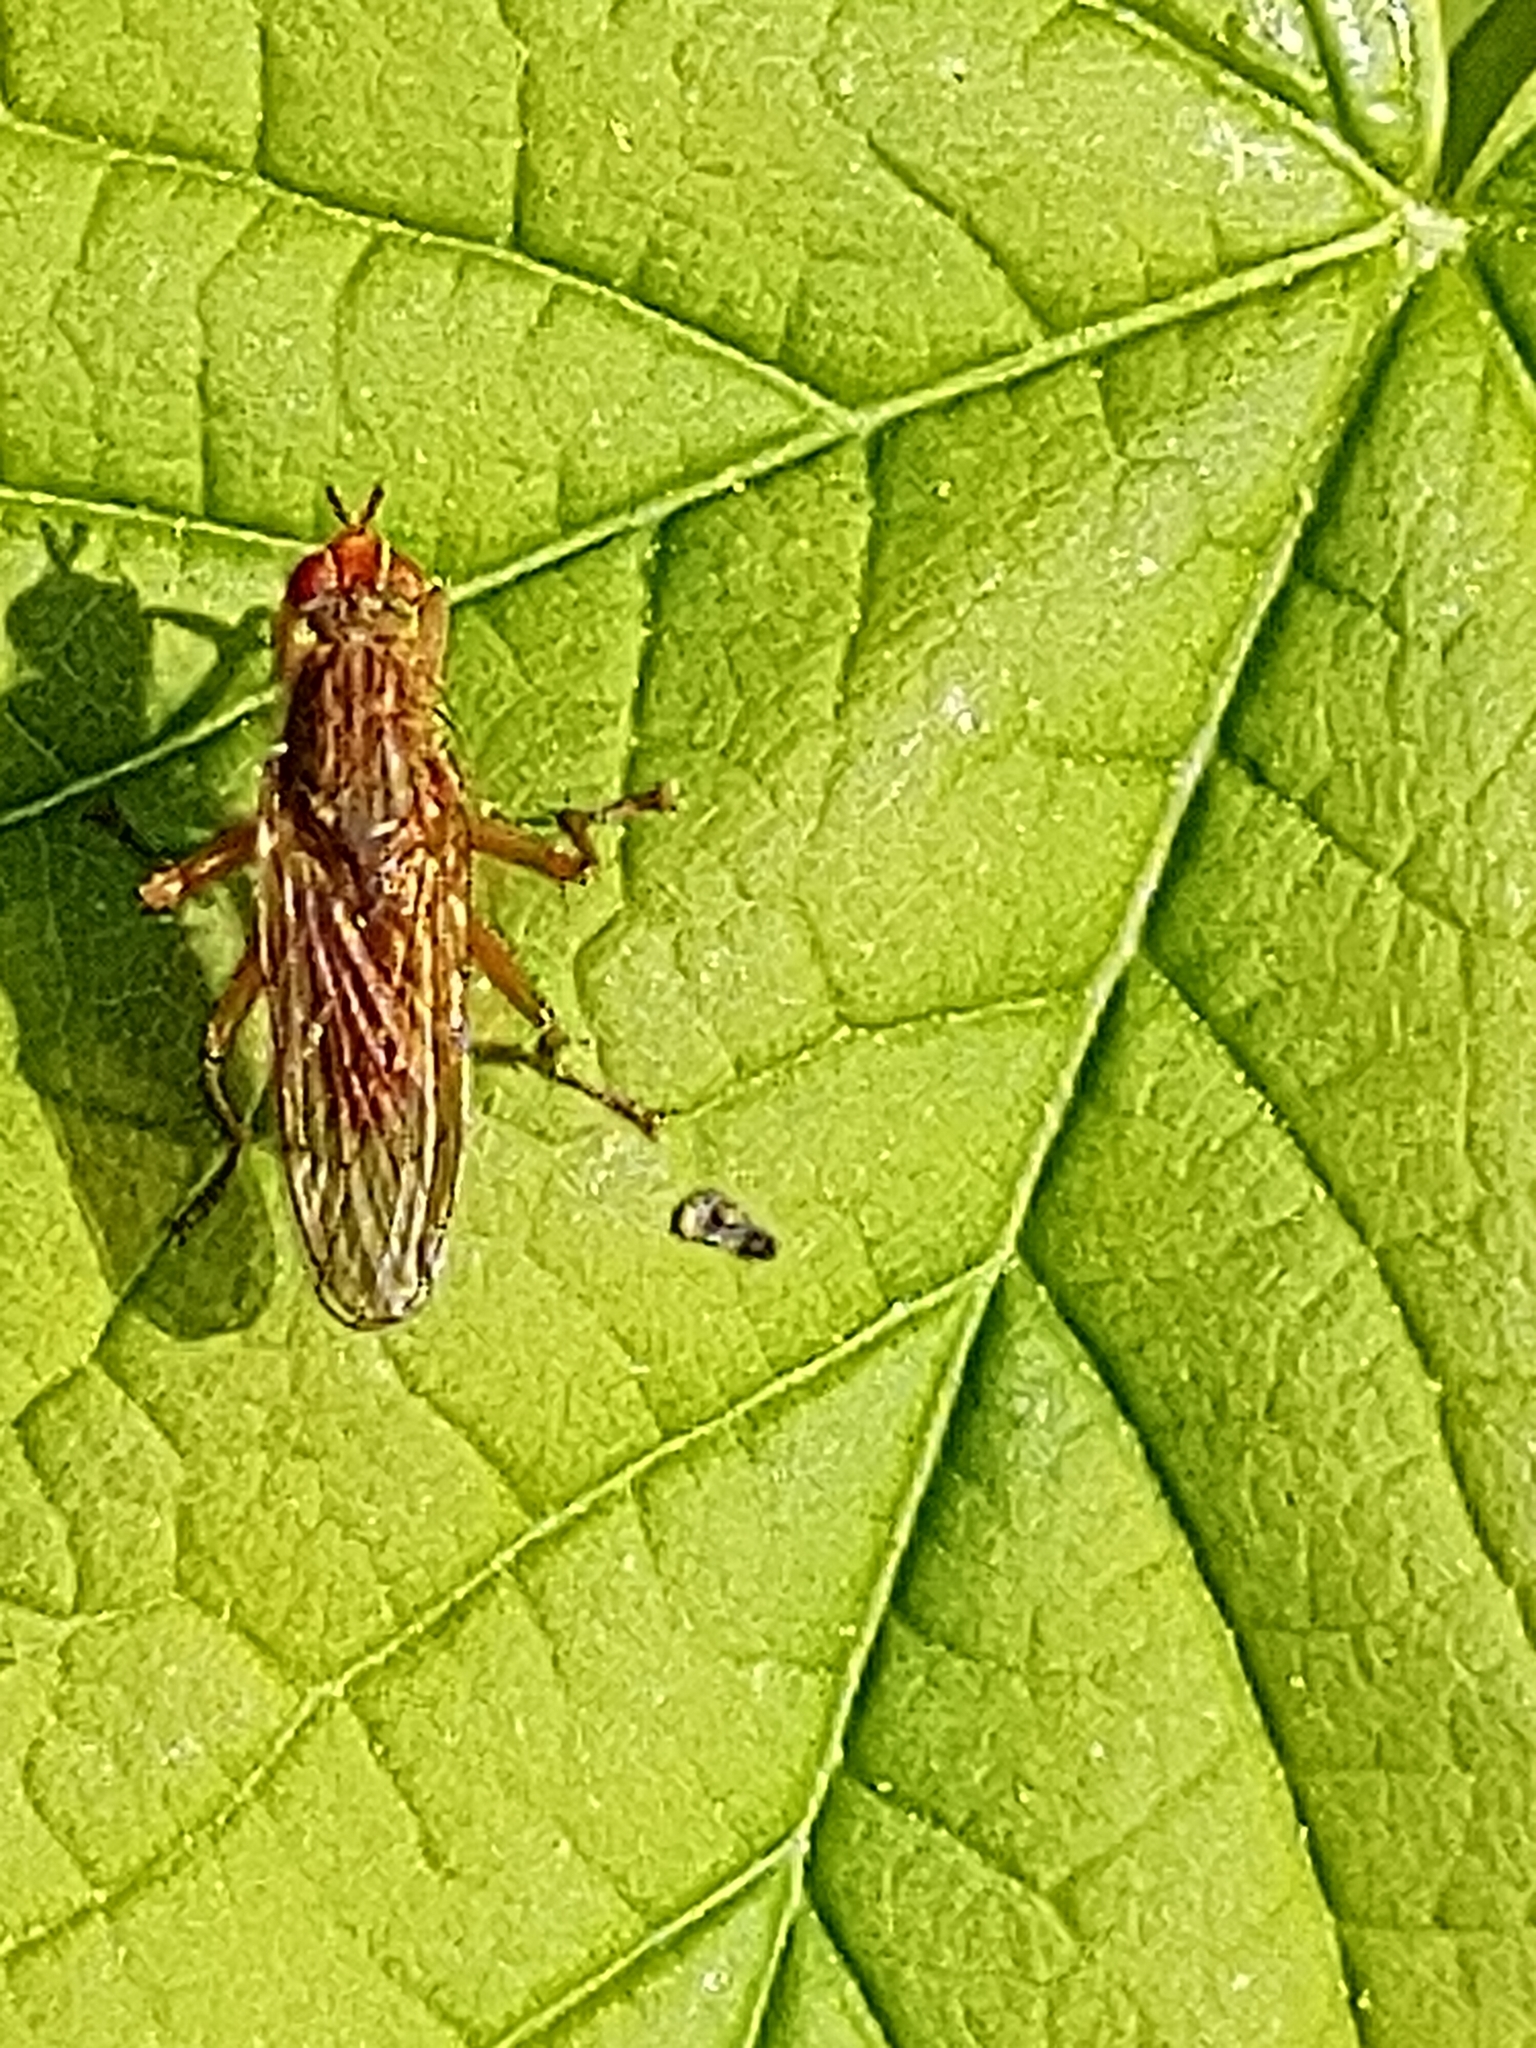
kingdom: Animalia
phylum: Arthropoda
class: Insecta
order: Diptera
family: Scathophagidae
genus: Scathophaga
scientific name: Scathophaga stercoraria
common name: Yellow dung fly
